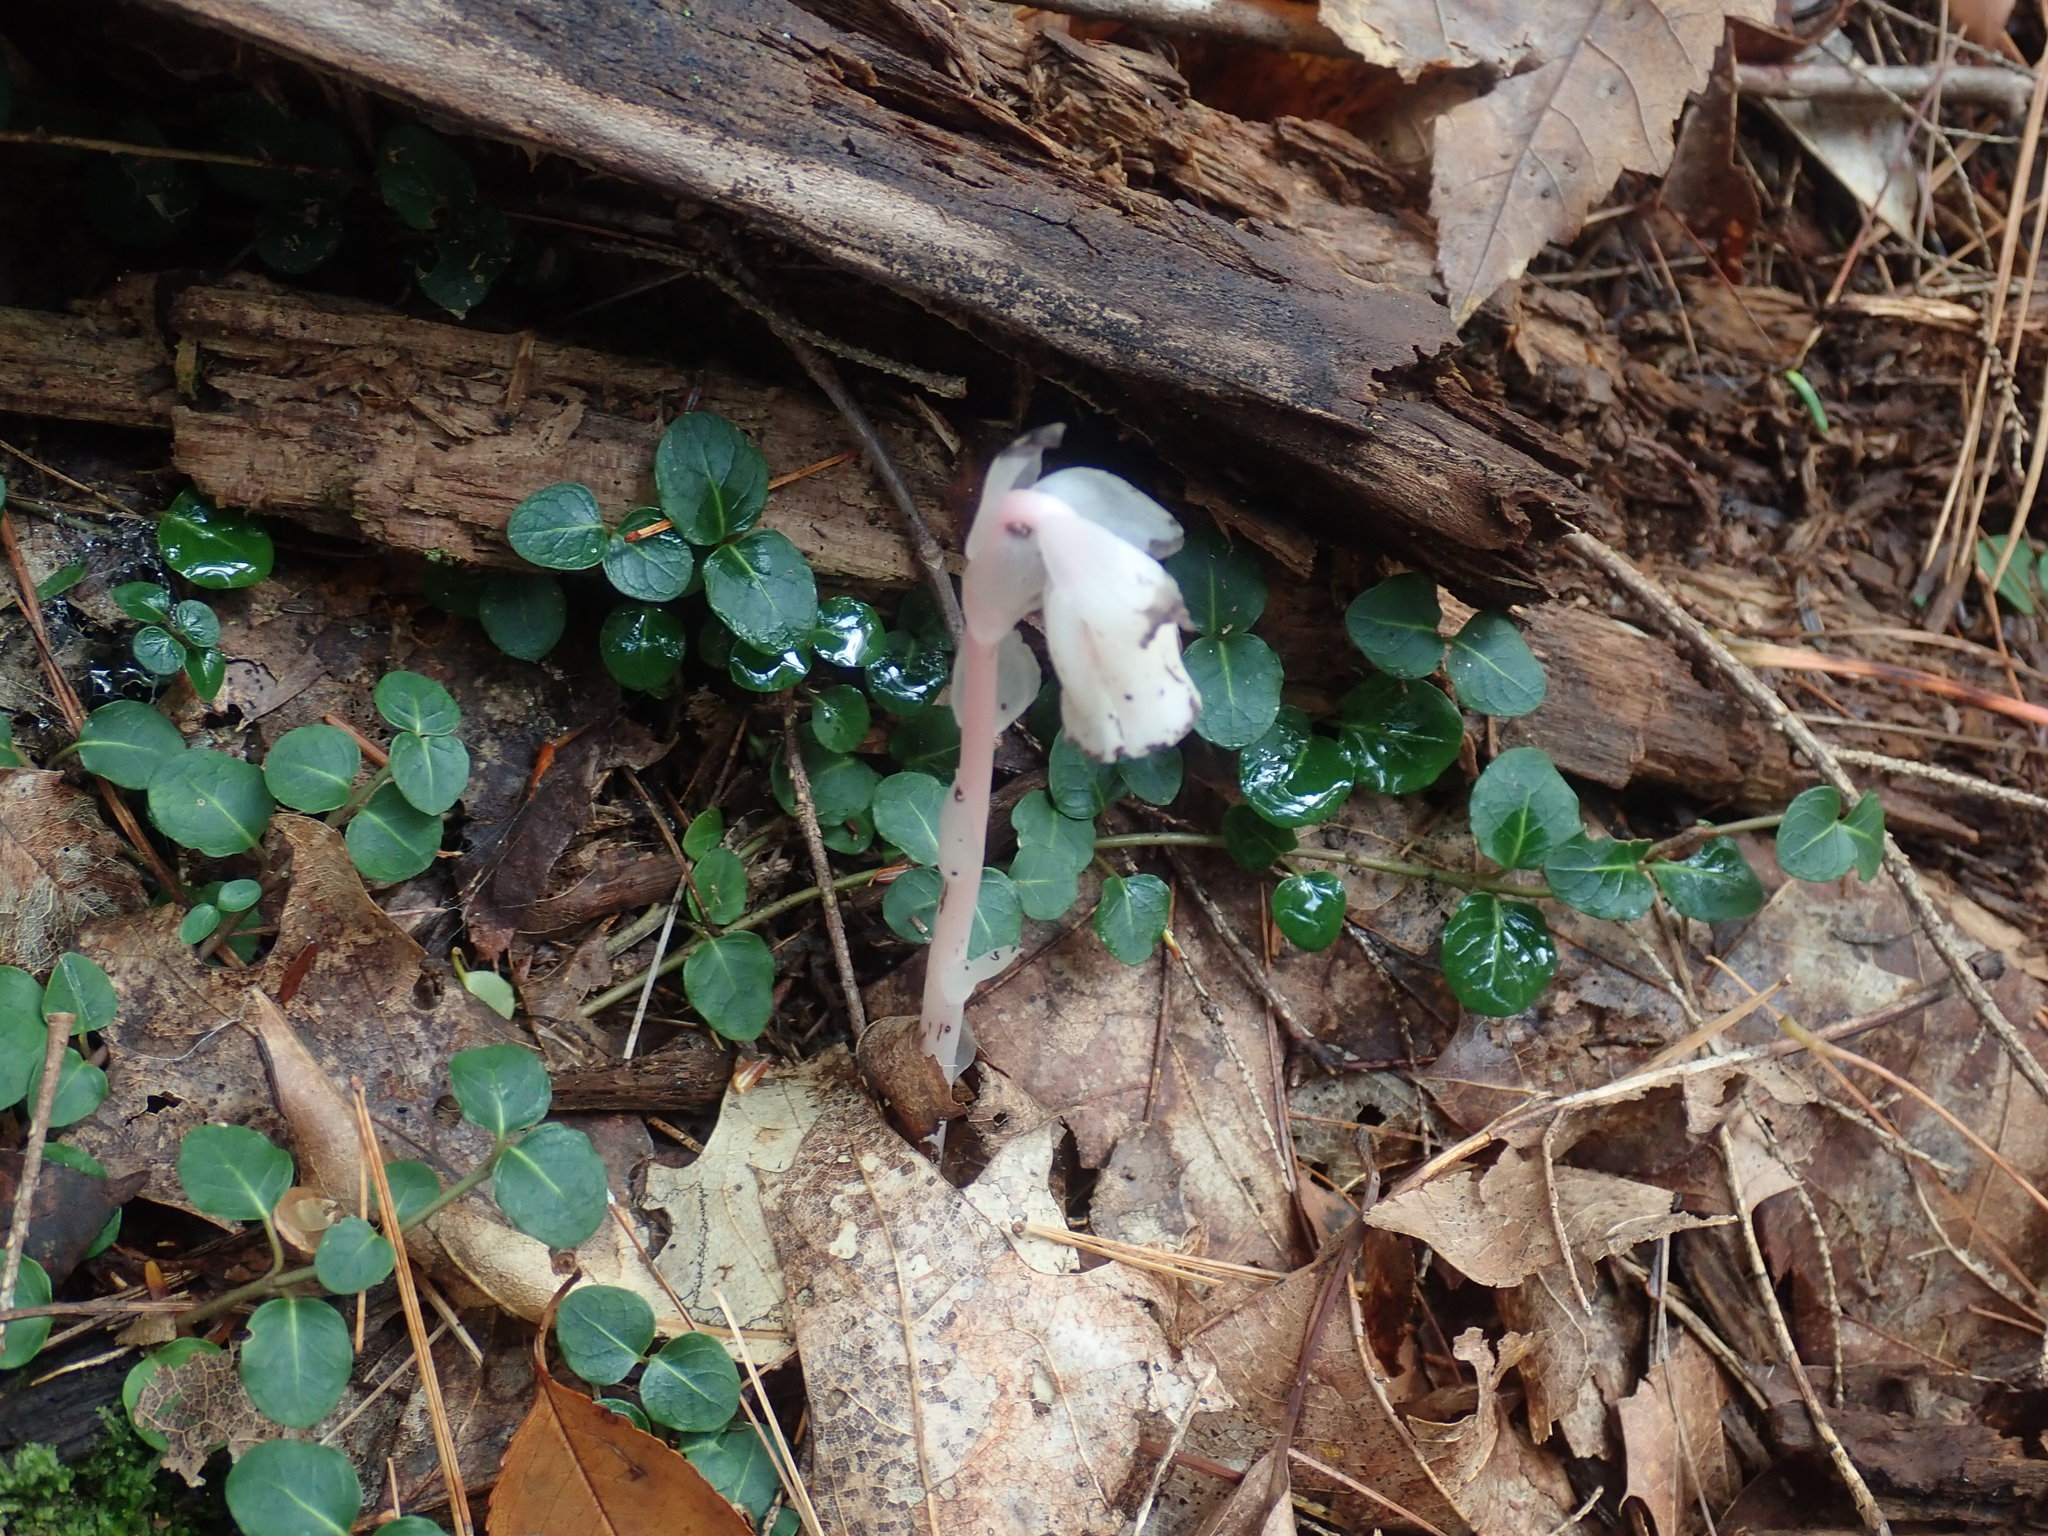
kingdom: Plantae
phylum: Tracheophyta
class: Magnoliopsida
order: Ericales
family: Ericaceae
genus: Monotropa
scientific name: Monotropa uniflora
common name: Convulsion root
